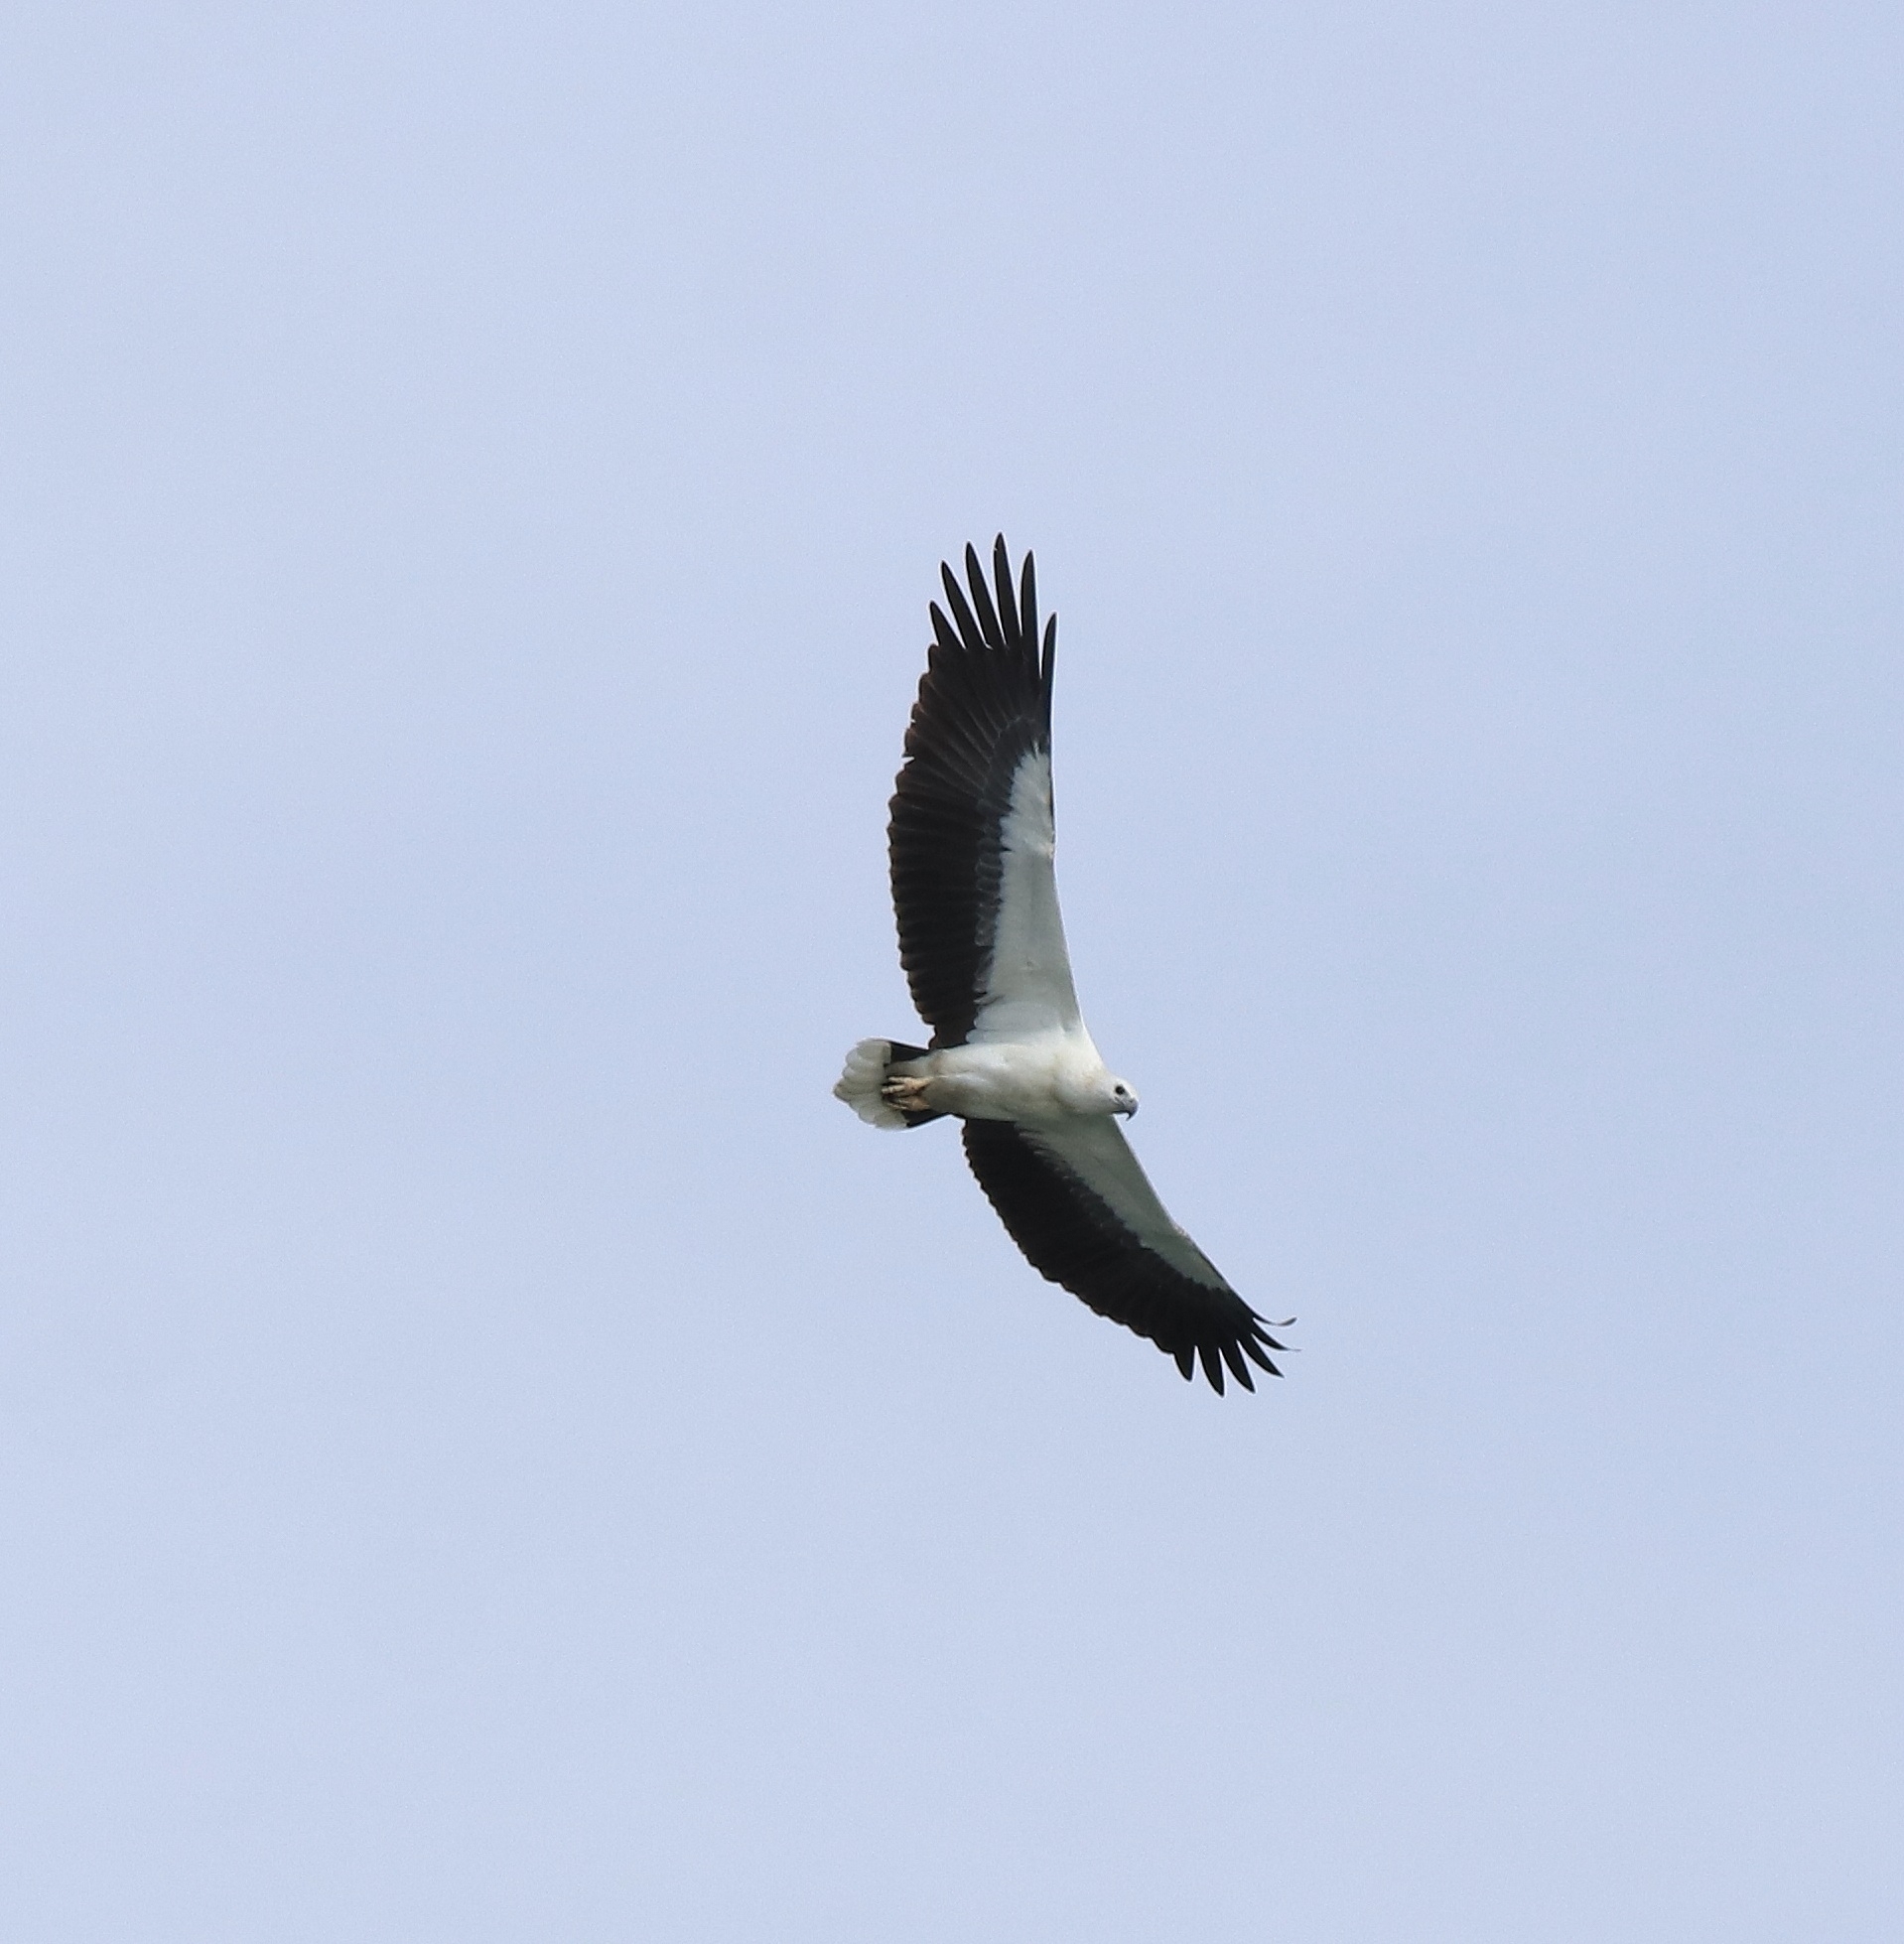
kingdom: Animalia
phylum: Chordata
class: Aves
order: Accipitriformes
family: Accipitridae
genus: Haliaeetus
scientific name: Haliaeetus leucogaster
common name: White-bellied sea eagle
